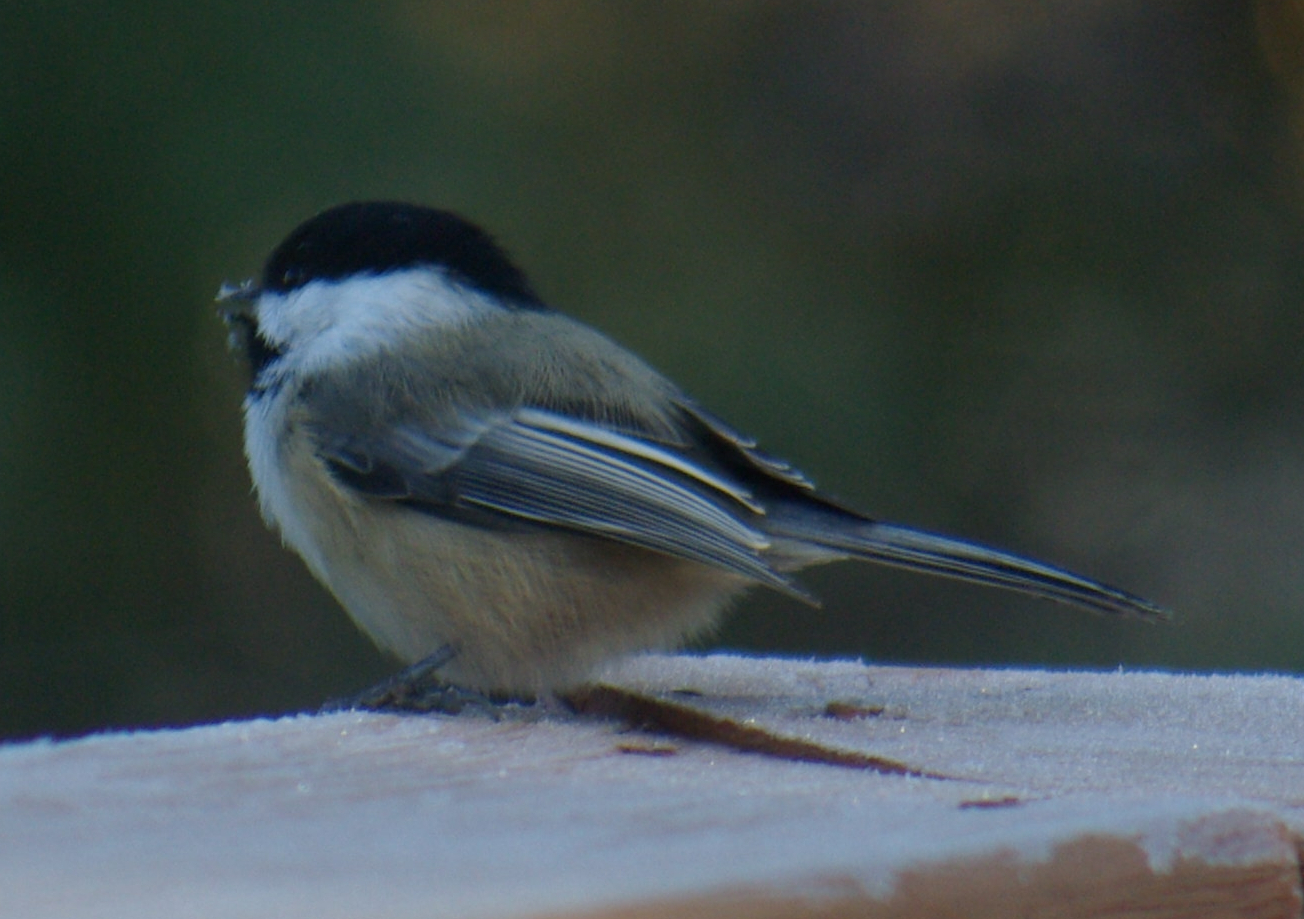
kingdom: Animalia
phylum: Chordata
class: Aves
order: Passeriformes
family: Paridae
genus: Poecile
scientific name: Poecile atricapillus
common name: Black-capped chickadee
